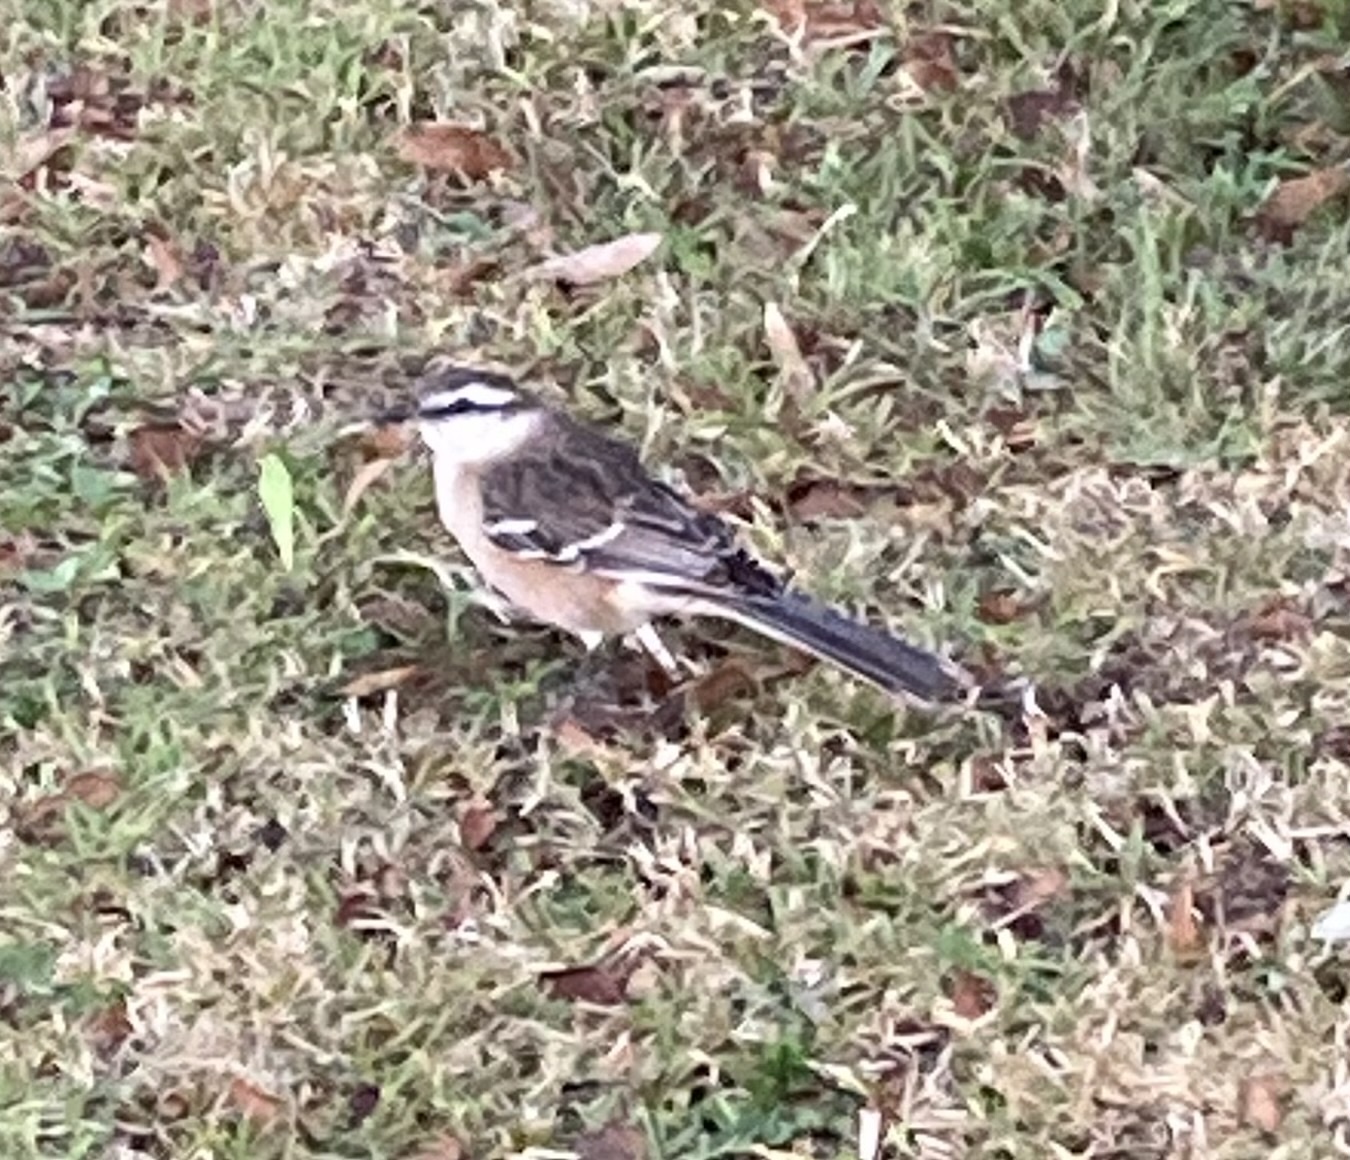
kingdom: Animalia
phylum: Chordata
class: Aves
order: Passeriformes
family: Mimidae
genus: Mimus
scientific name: Mimus saturninus
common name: Chalk-browed mockingbird
